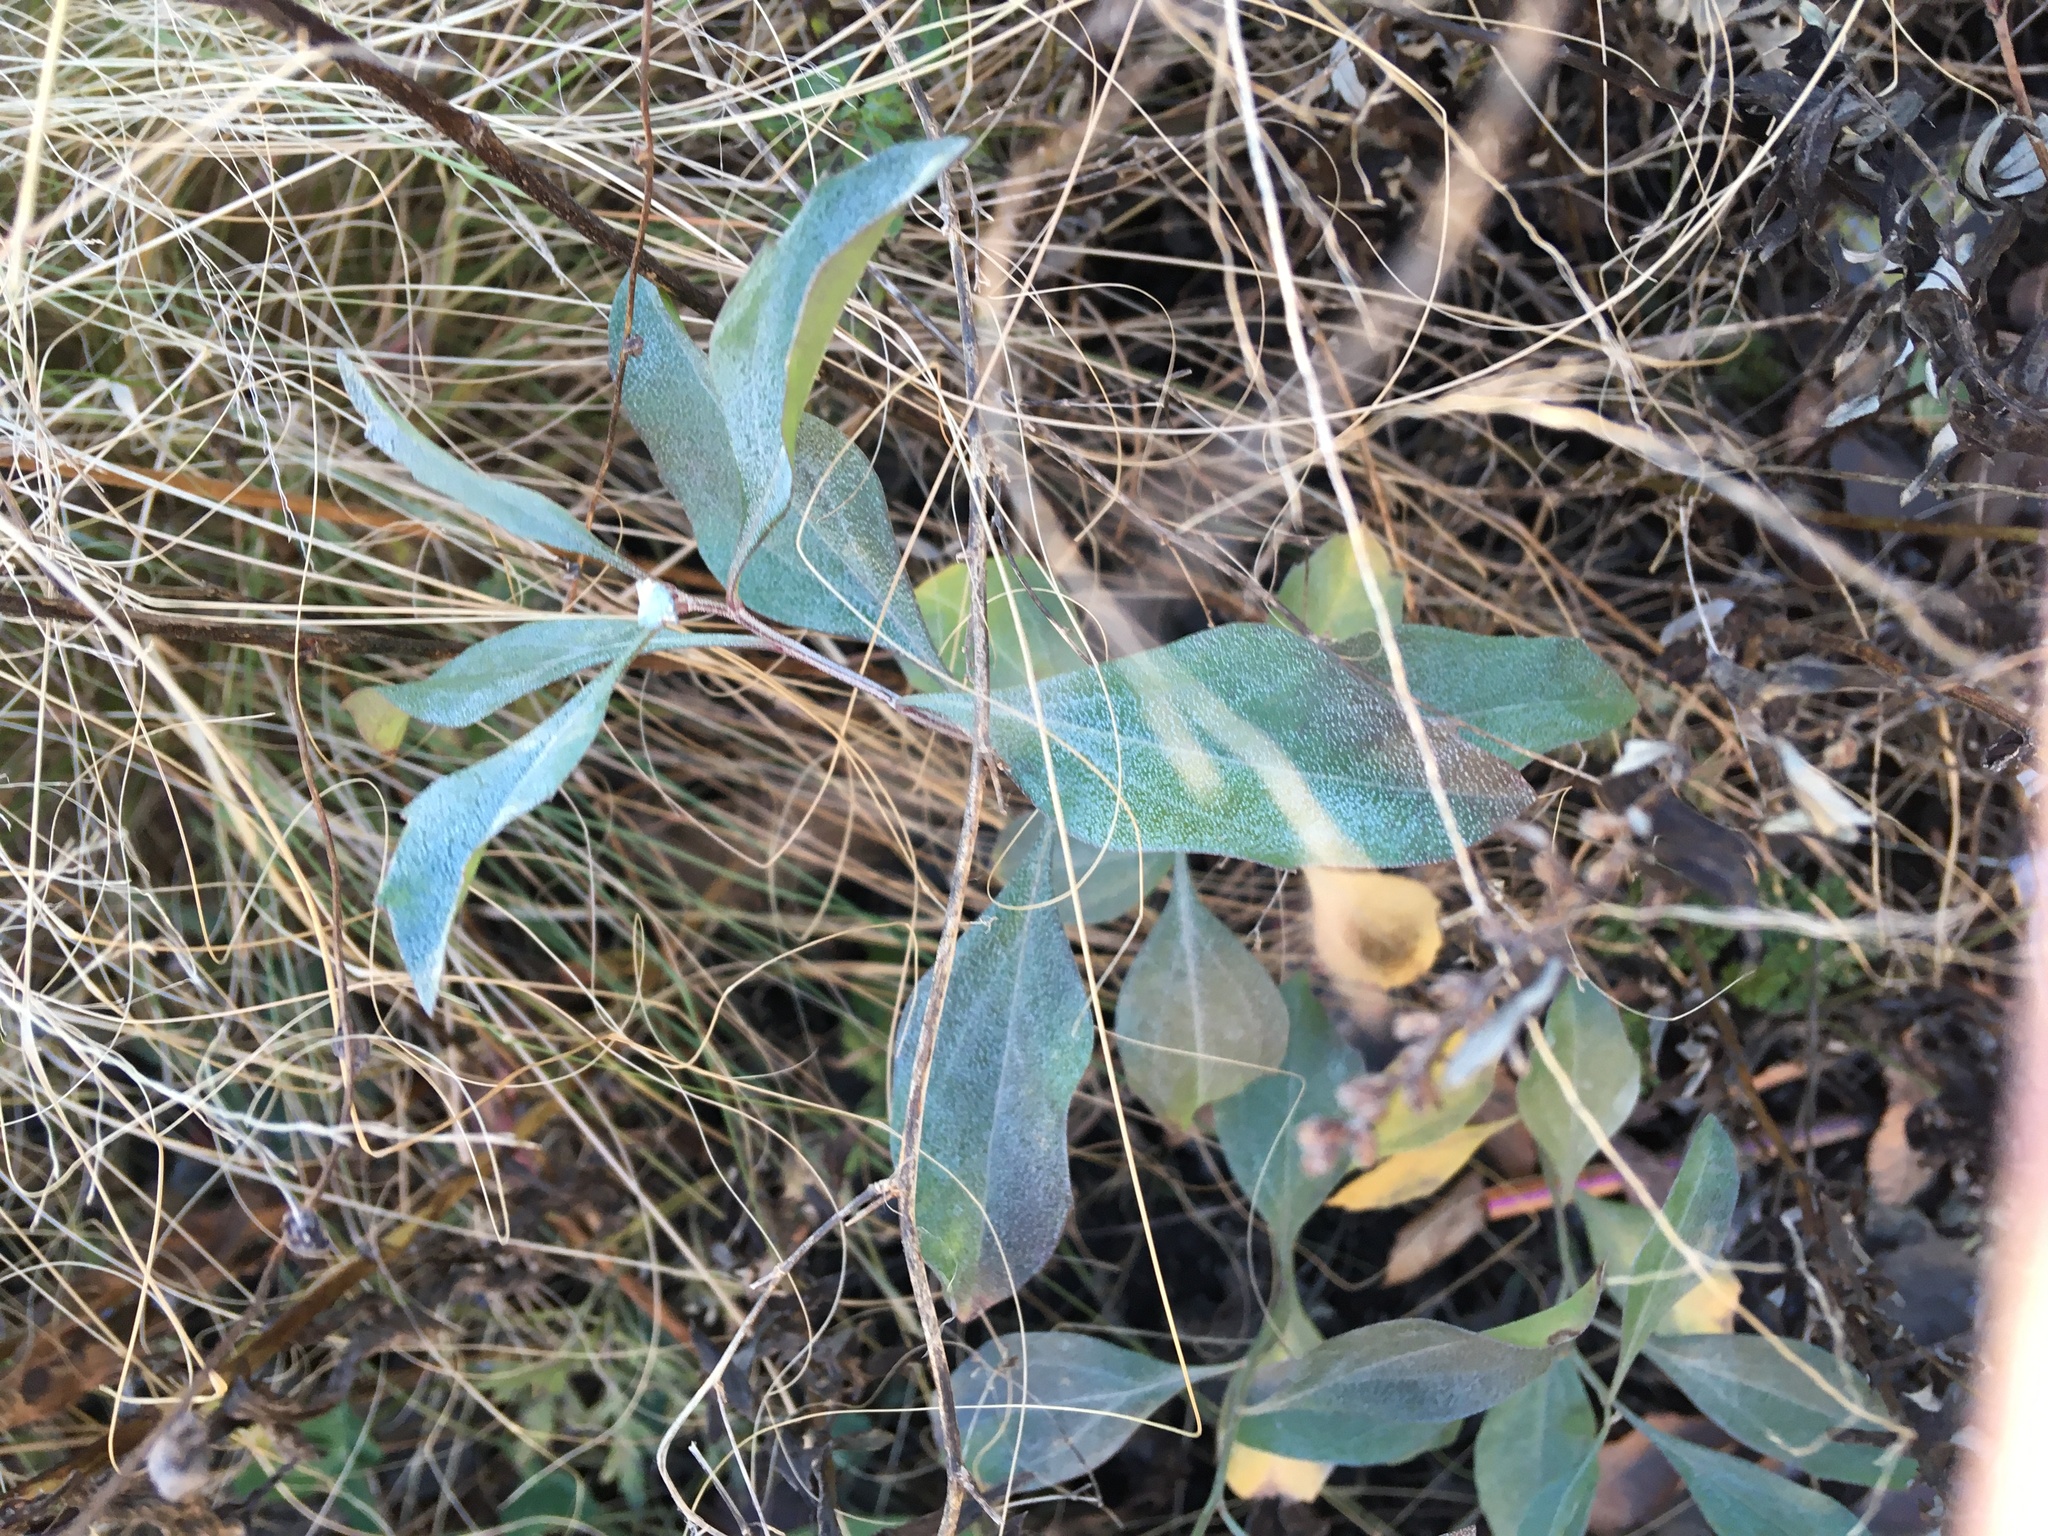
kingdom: Plantae
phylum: Tracheophyta
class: Magnoliopsida
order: Asterales
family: Asteraceae
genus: Baccharis
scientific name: Baccharis halimifolia
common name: Eastern baccharis
